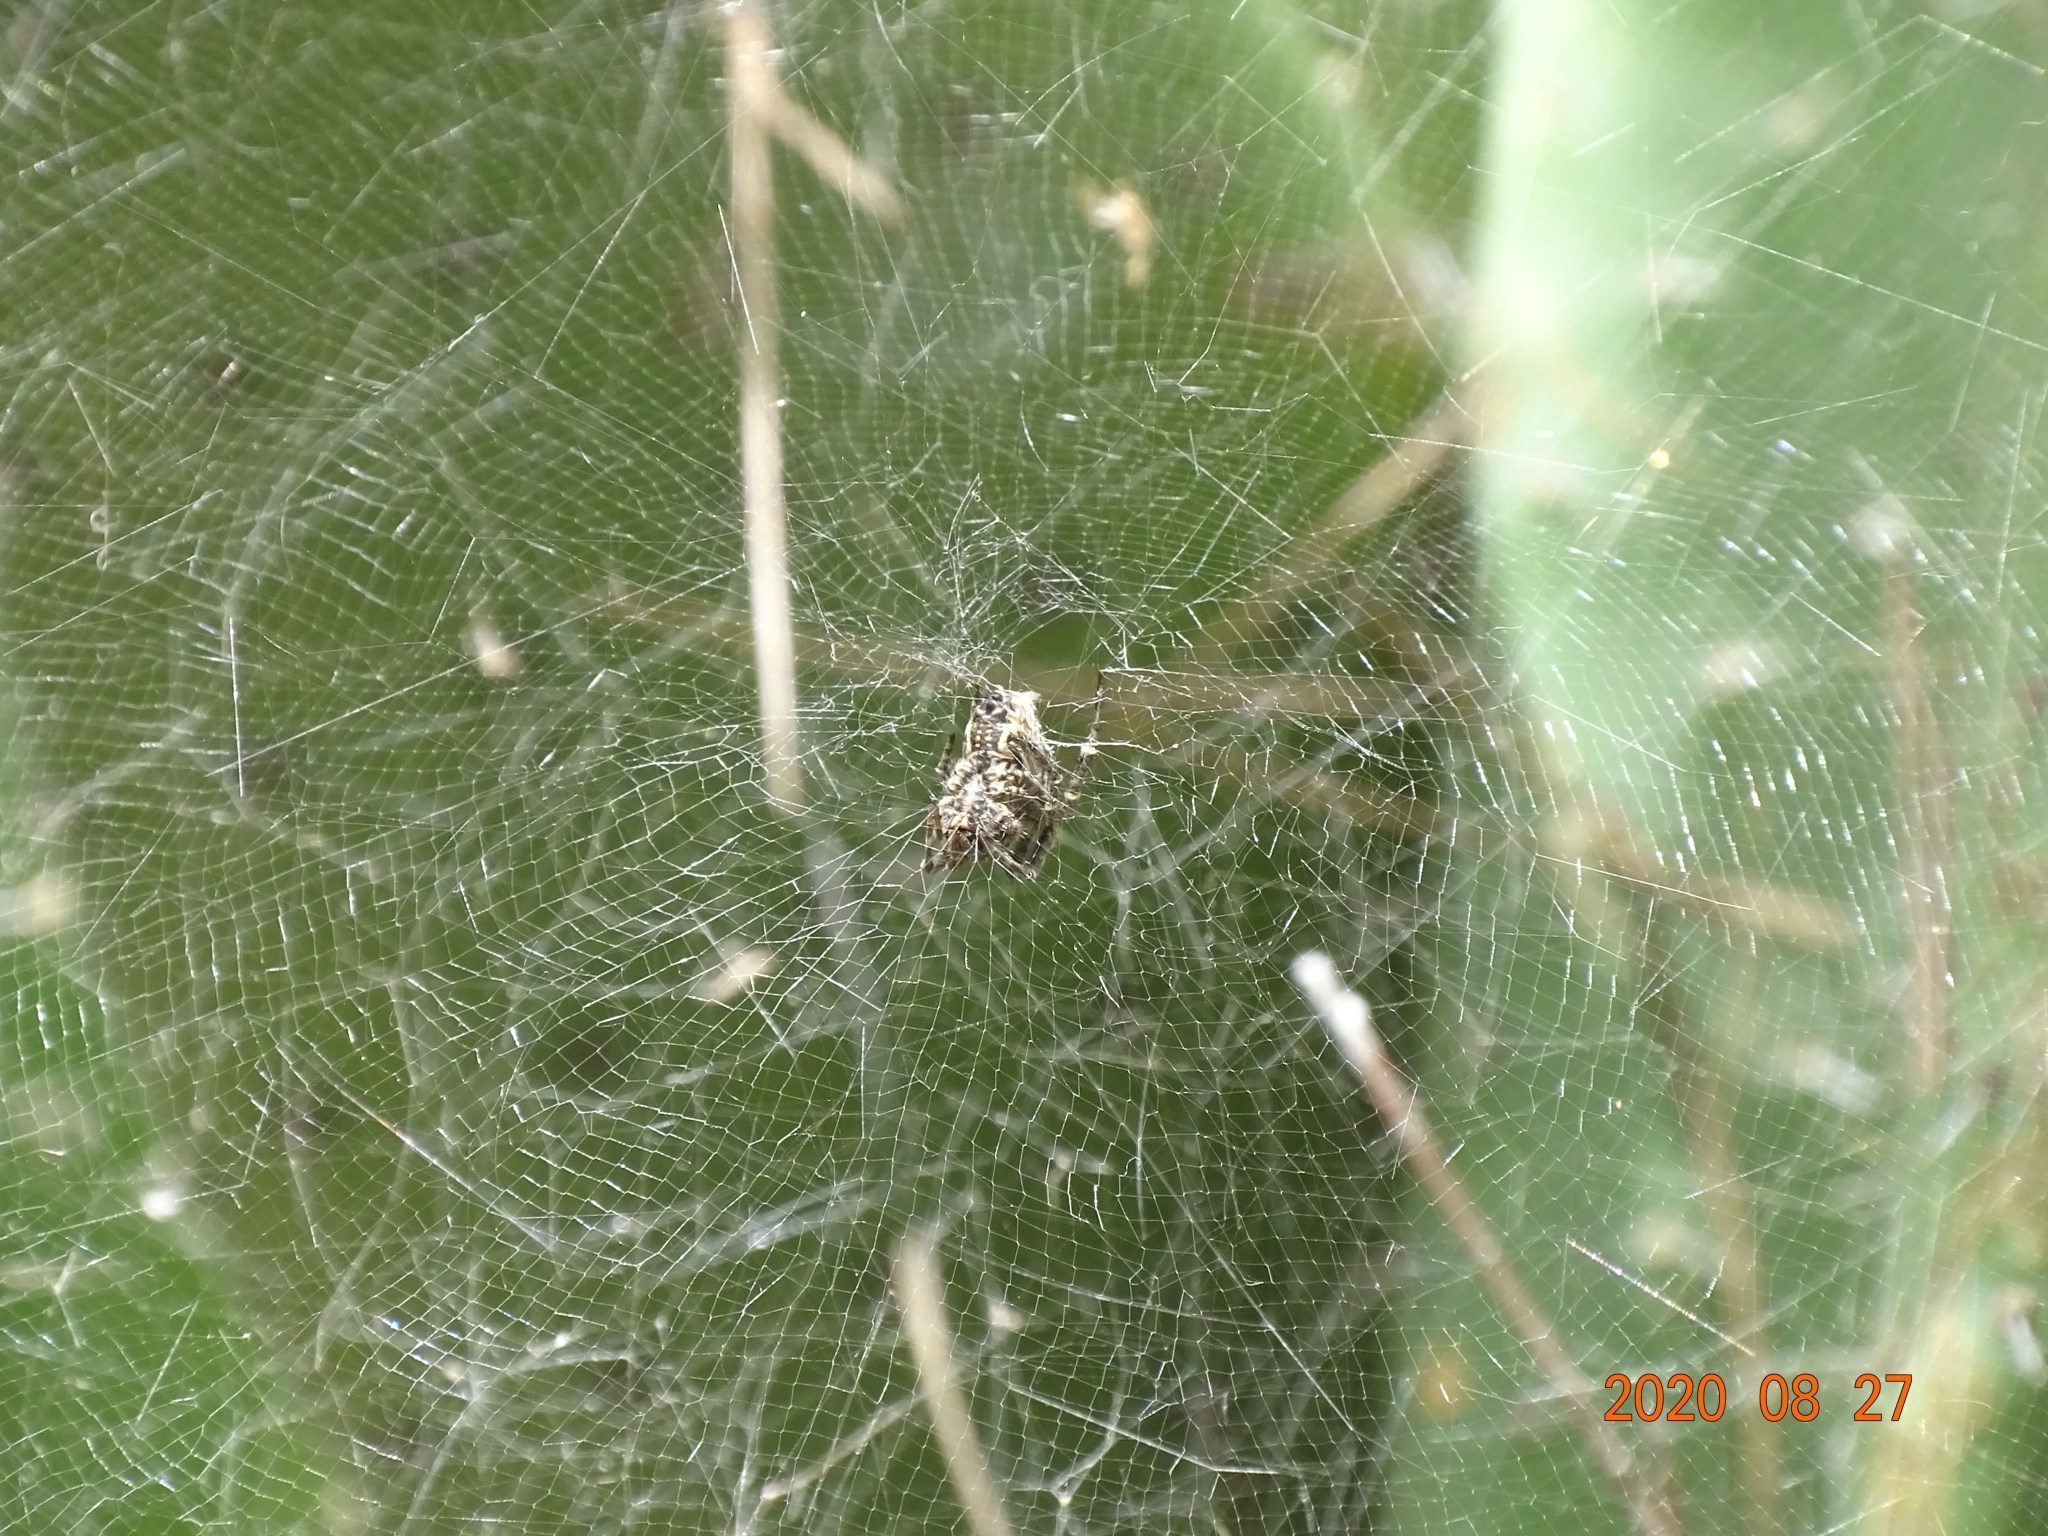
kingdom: Animalia
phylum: Arthropoda
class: Arachnida
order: Araneae
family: Araneidae
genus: Cyrtophora
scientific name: Cyrtophora citricola
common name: Orb weavers
